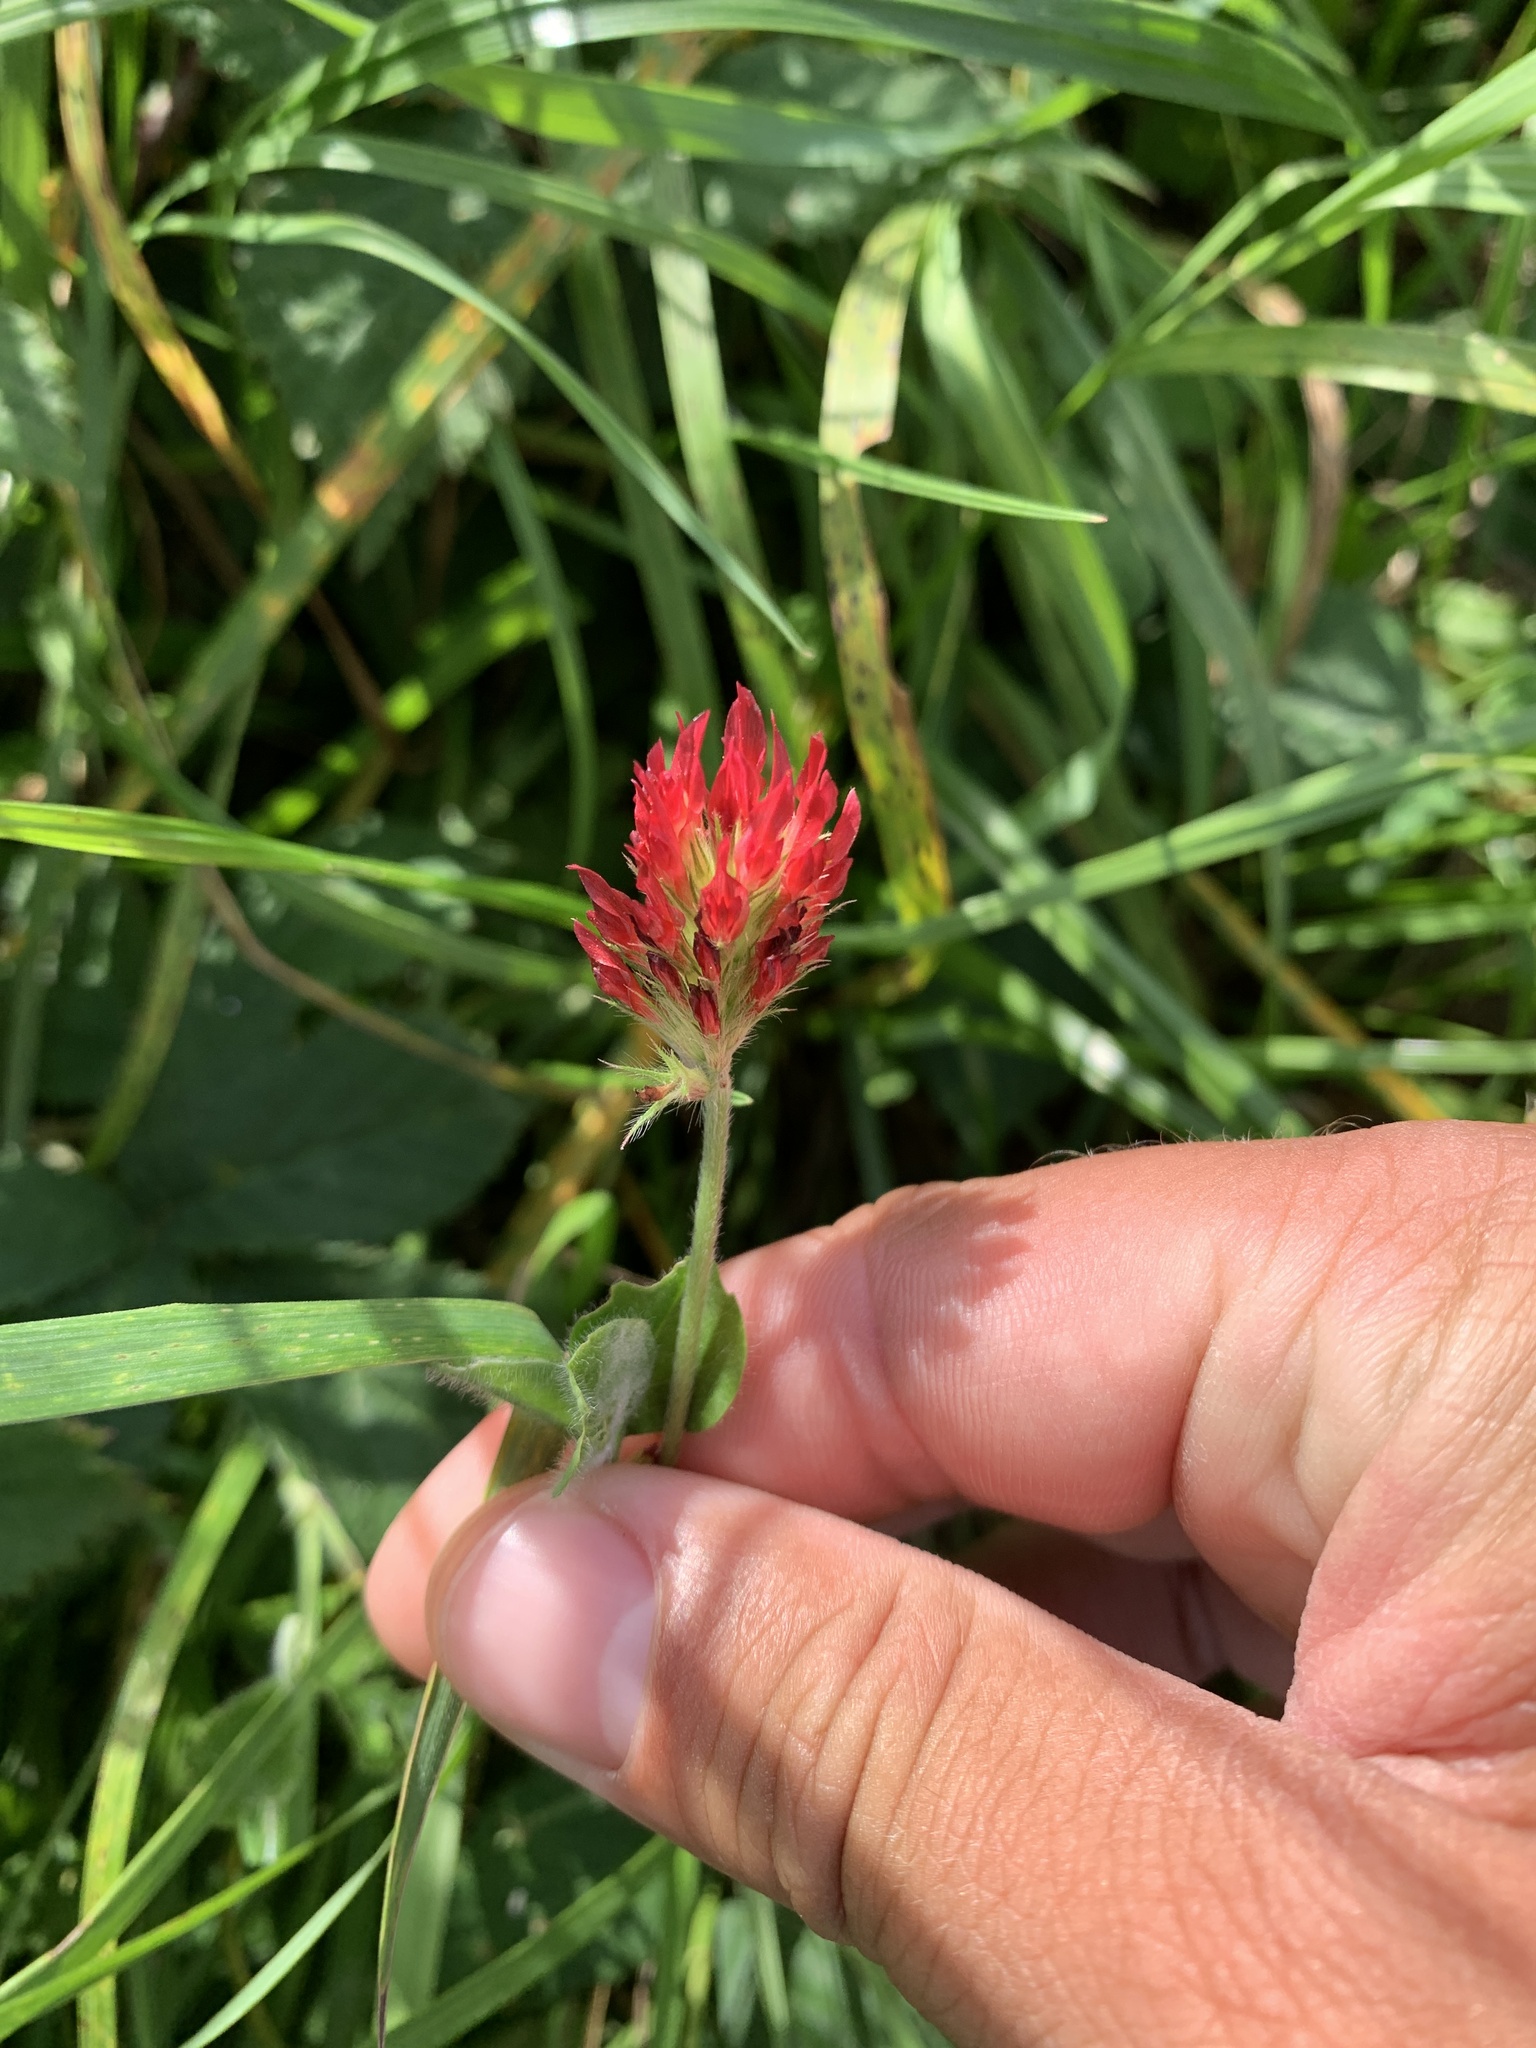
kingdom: Plantae
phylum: Tracheophyta
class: Magnoliopsida
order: Fabales
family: Fabaceae
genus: Trifolium
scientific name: Trifolium incarnatum
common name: Crimson clover
